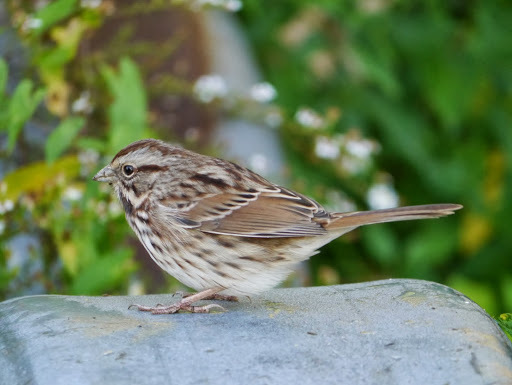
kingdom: Animalia
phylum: Chordata
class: Aves
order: Passeriformes
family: Passerellidae
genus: Melospiza
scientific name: Melospiza melodia
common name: Song sparrow
